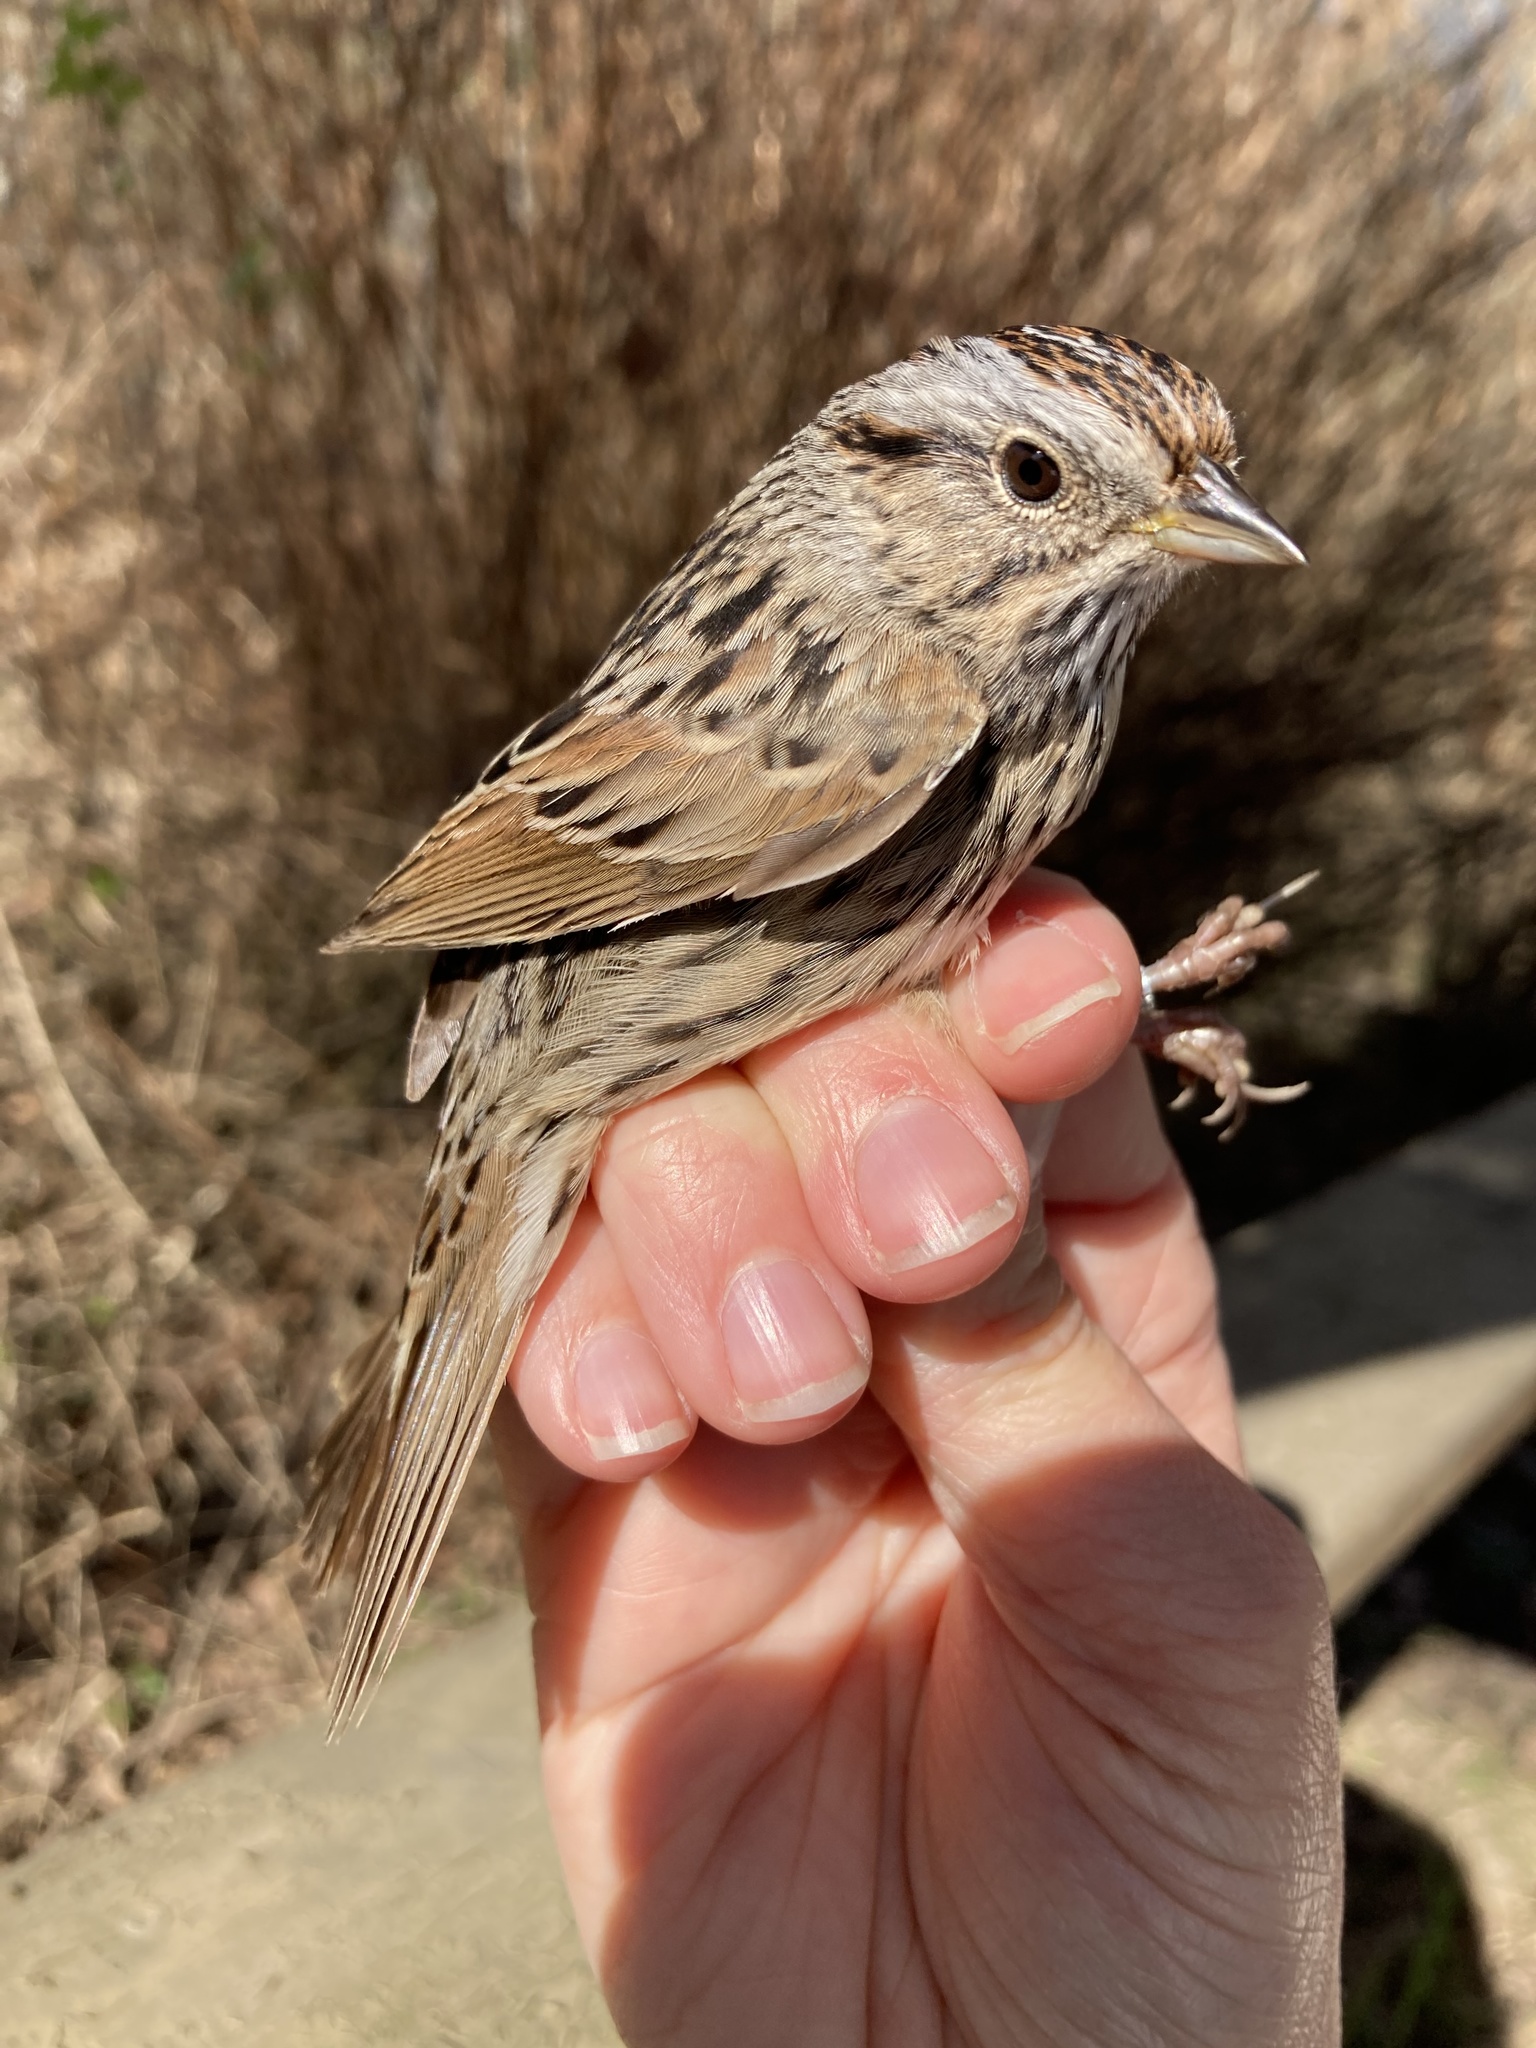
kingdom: Animalia
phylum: Chordata
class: Aves
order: Passeriformes
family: Passerellidae
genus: Melospiza
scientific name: Melospiza lincolnii
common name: Lincoln's sparrow
